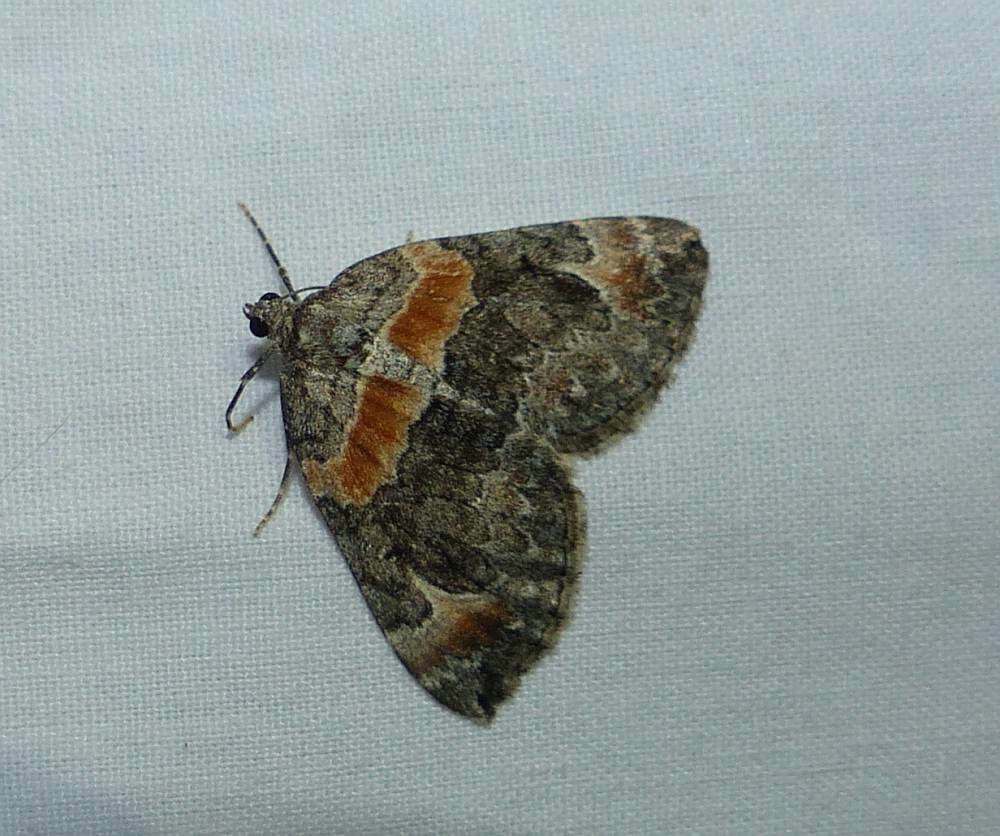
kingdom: Animalia
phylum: Arthropoda
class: Insecta
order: Lepidoptera
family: Geometridae
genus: Dysstroma
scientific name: Dysstroma hersiliata
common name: Orange-barred carpet
